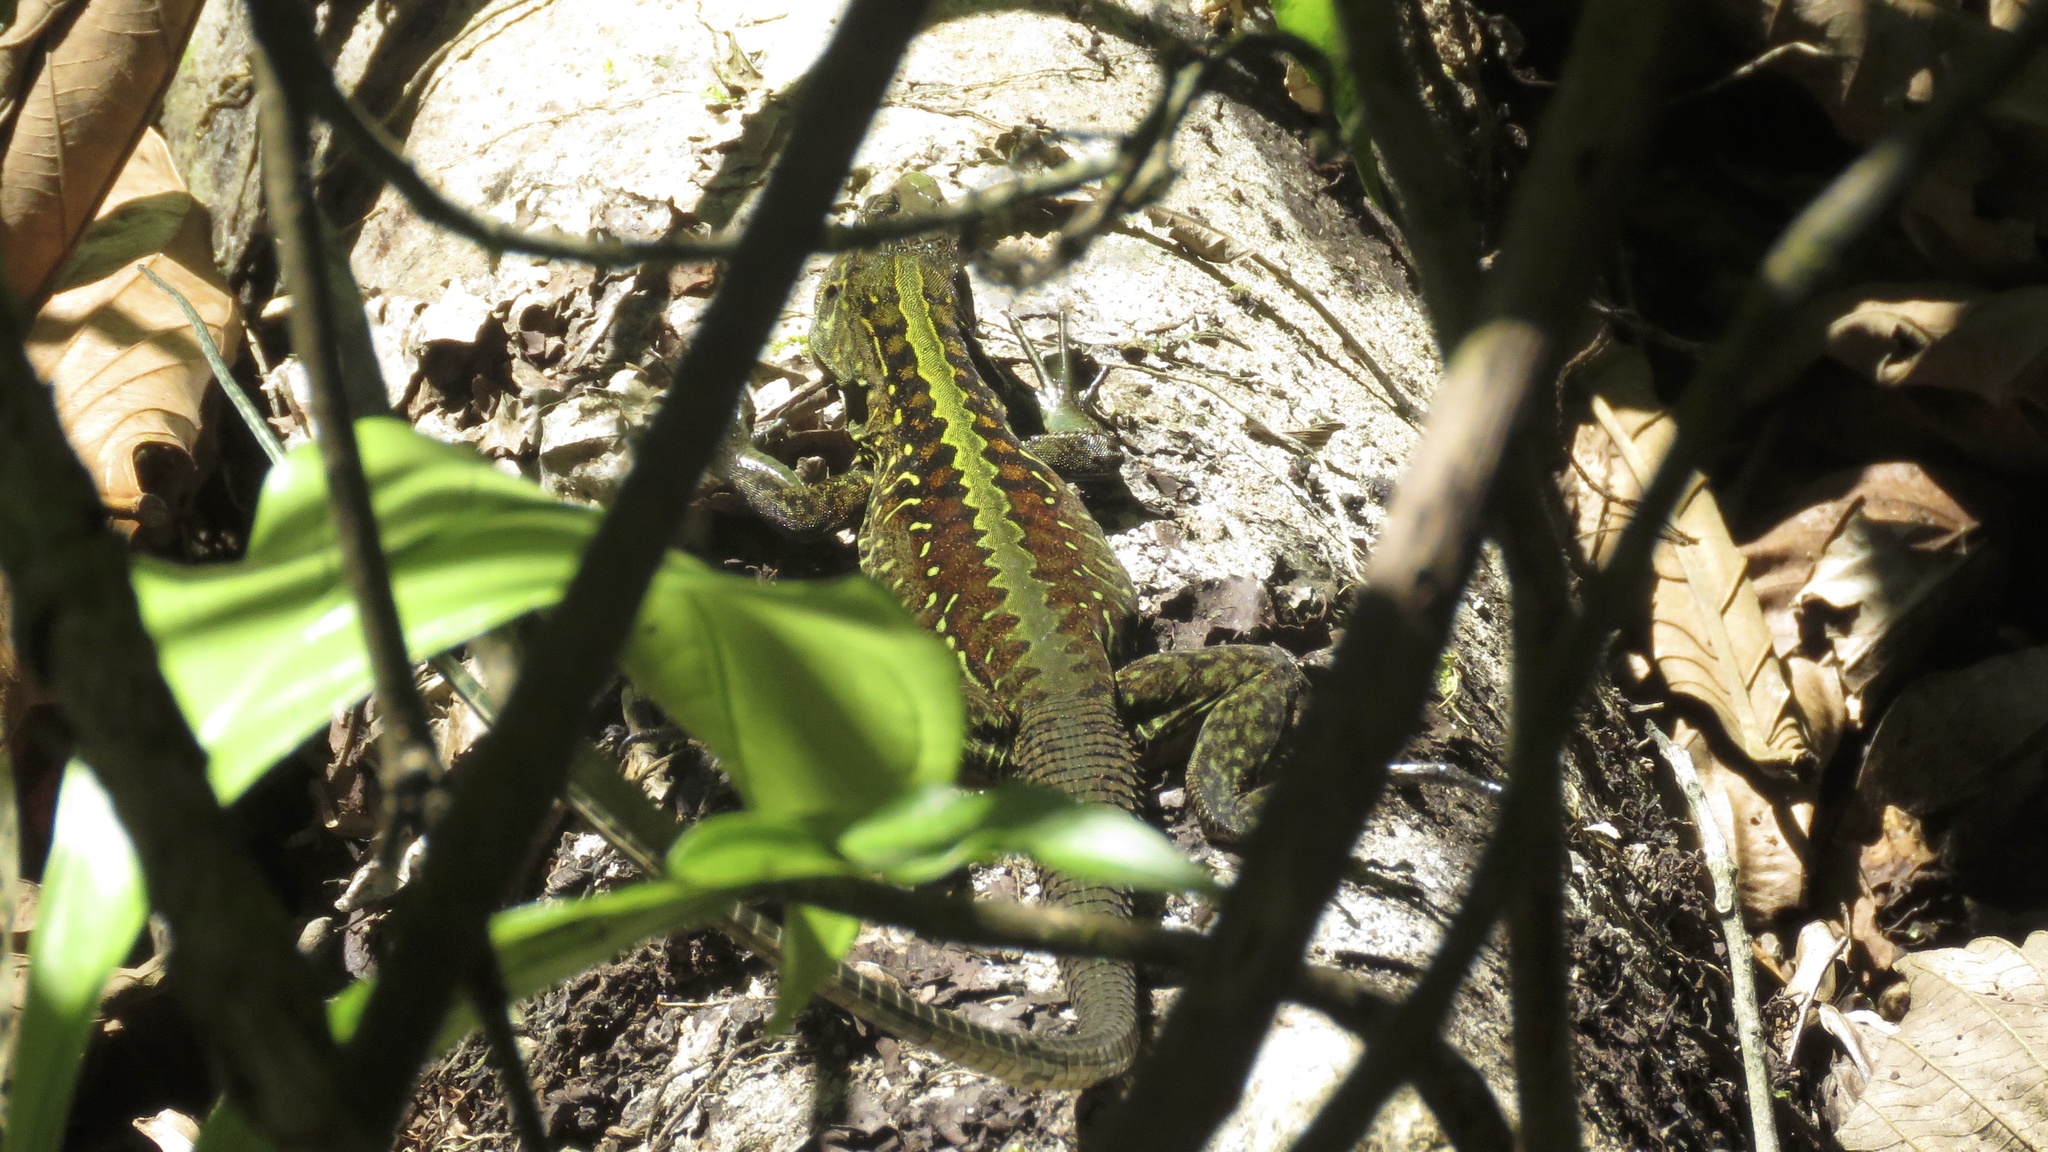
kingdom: Animalia
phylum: Chordata
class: Squamata
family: Teiidae
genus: Holcosus
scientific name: Holcosus festivus
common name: Middle american ameiva
